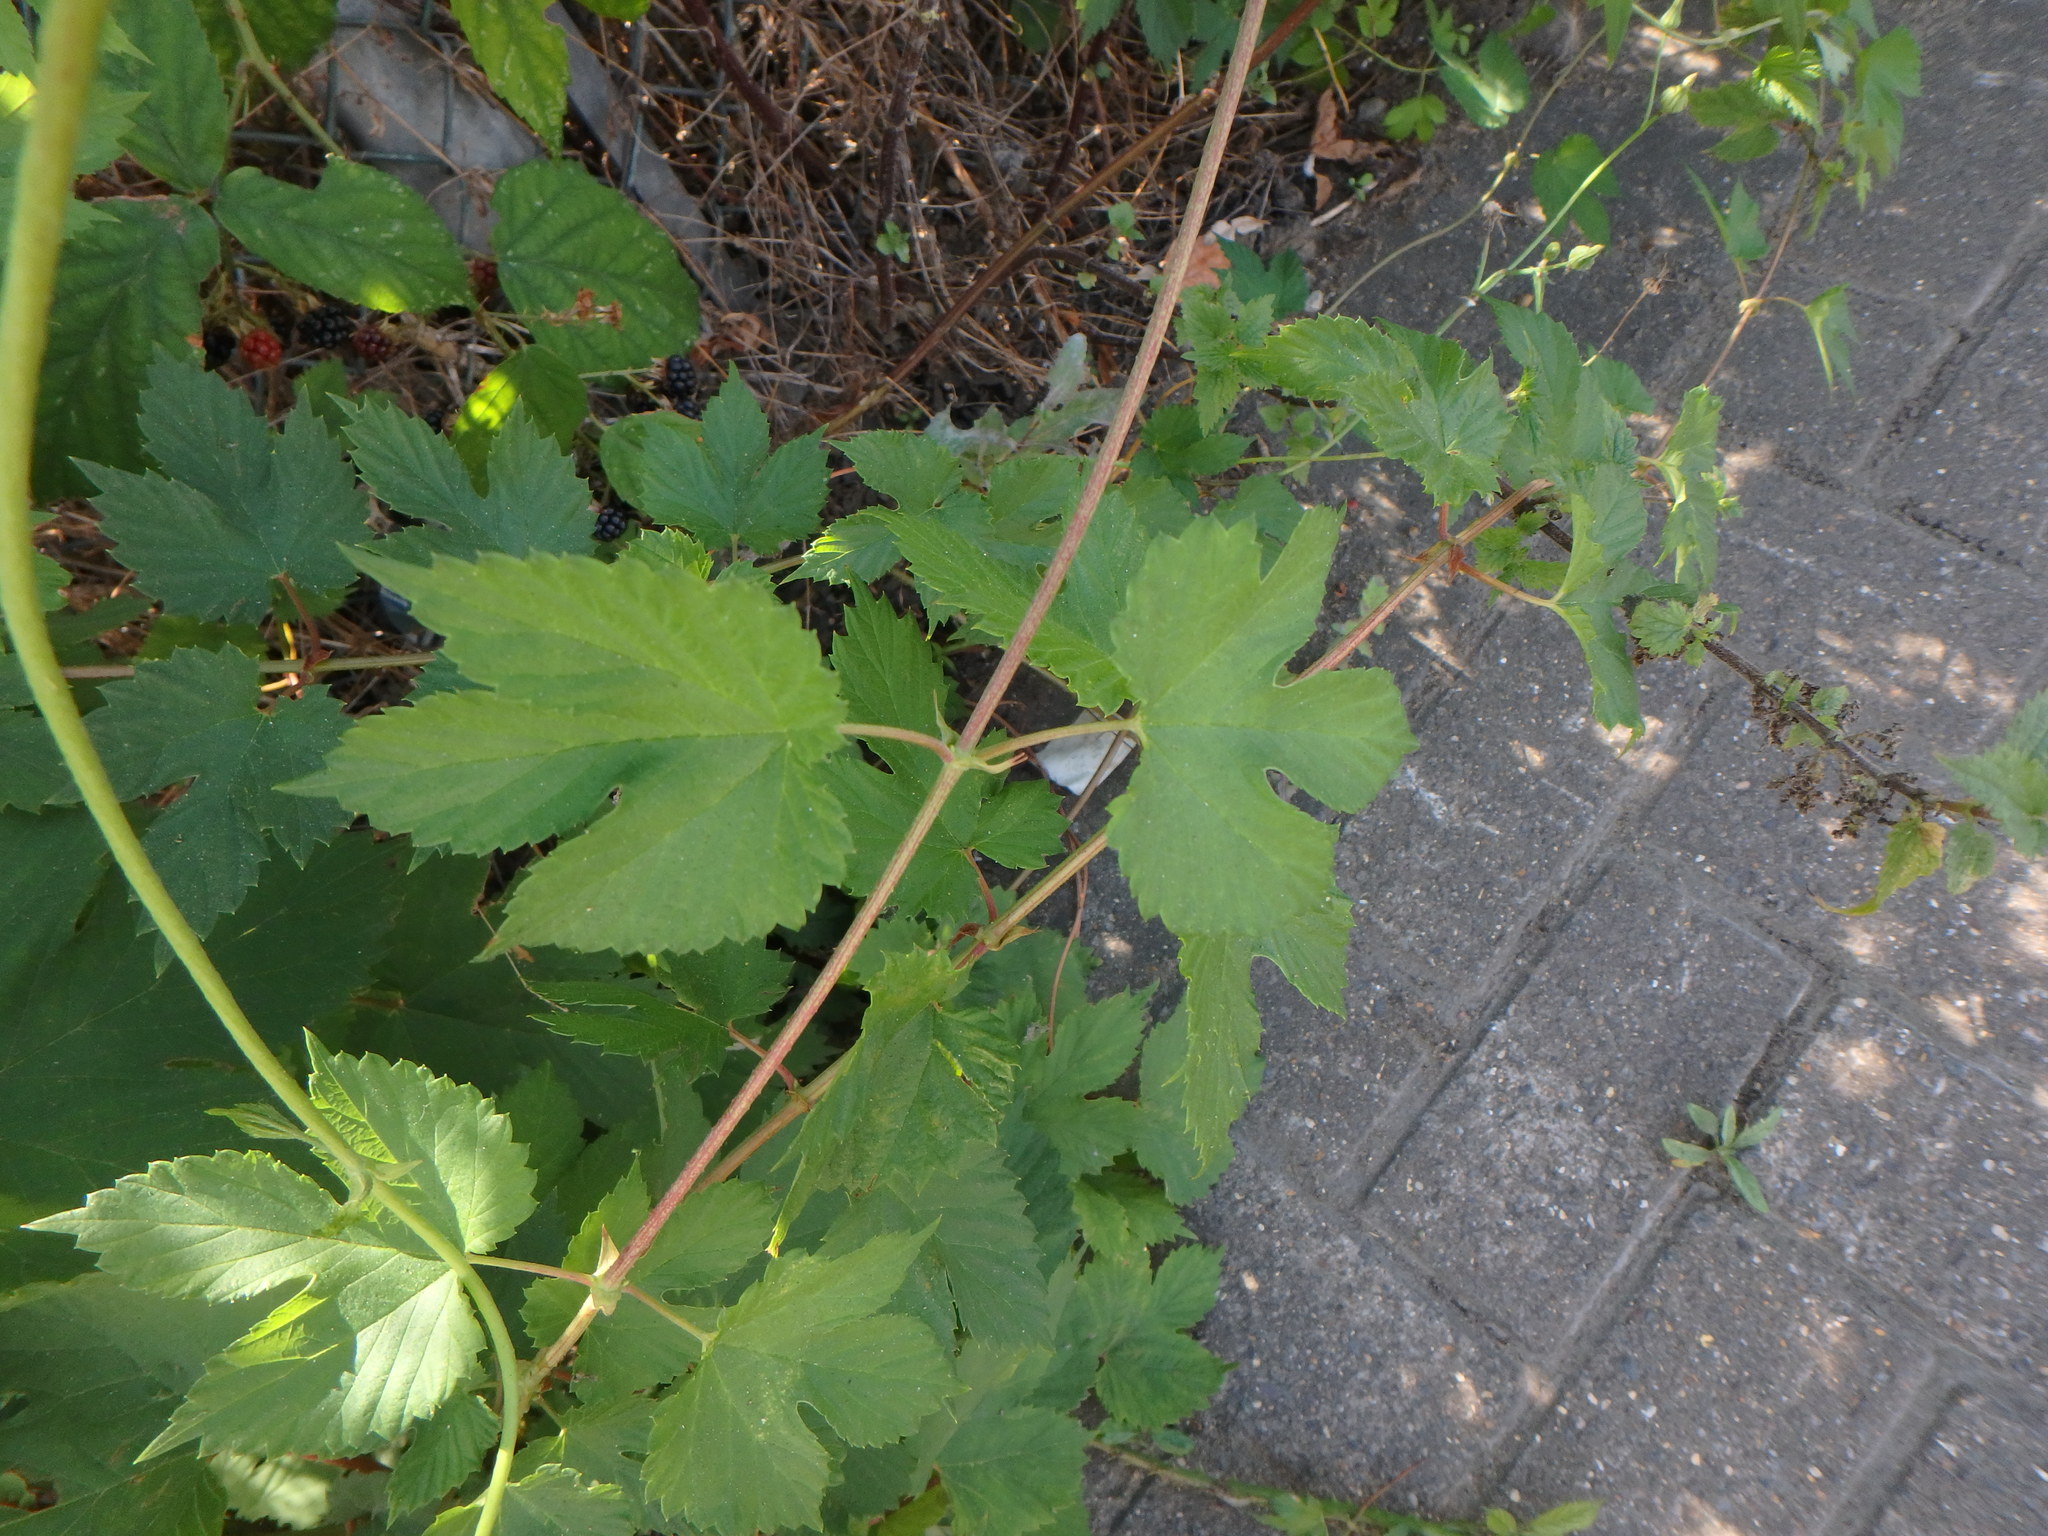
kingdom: Plantae
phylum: Tracheophyta
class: Magnoliopsida
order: Rosales
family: Cannabaceae
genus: Humulus
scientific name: Humulus lupulus
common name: Hop
